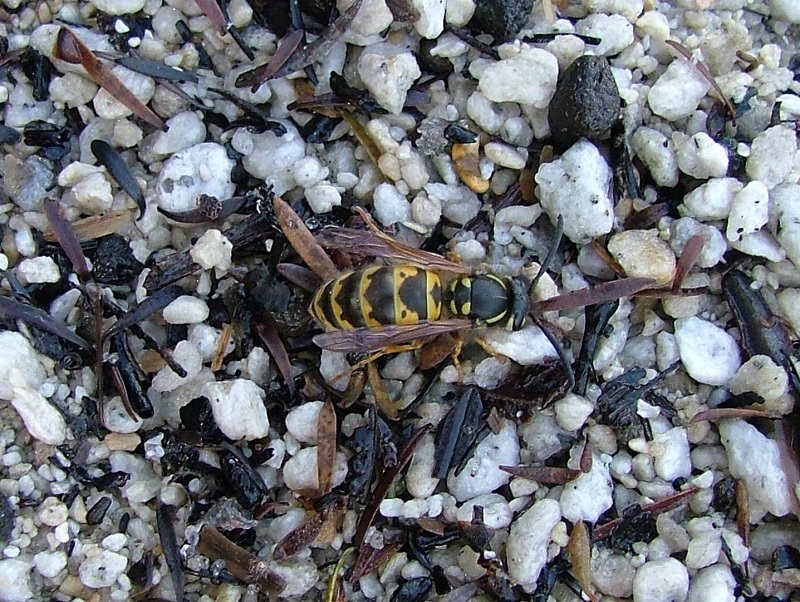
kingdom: Animalia
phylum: Arthropoda
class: Insecta
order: Hymenoptera
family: Vespidae
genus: Vespula
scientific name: Vespula vulgaris
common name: Common wasp
